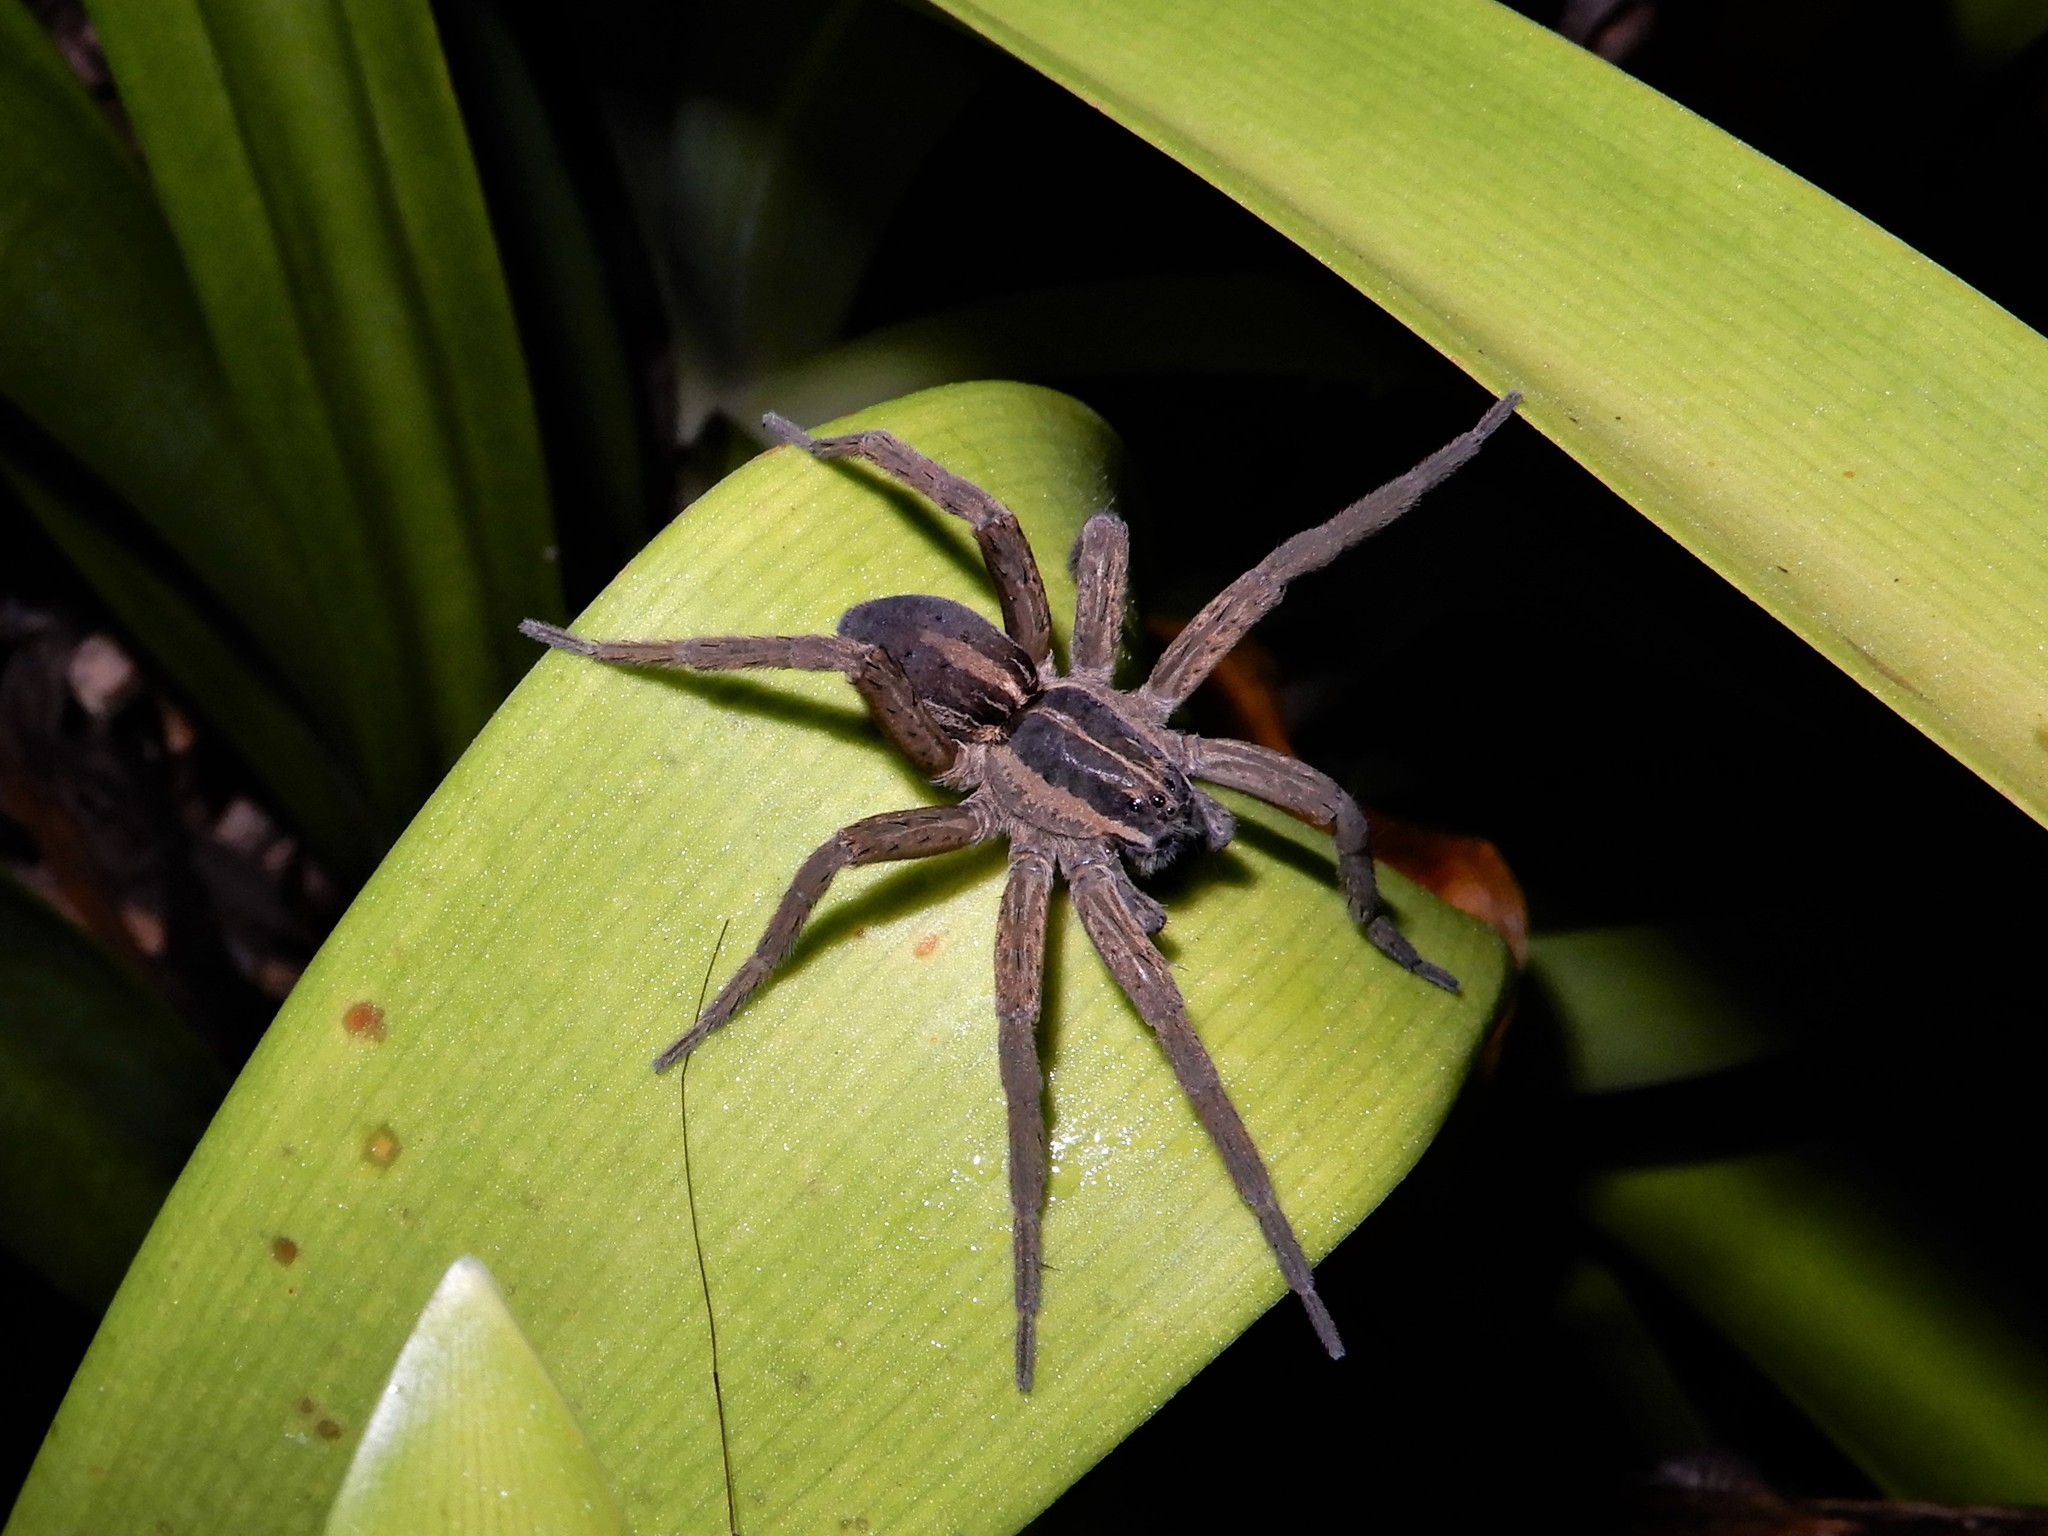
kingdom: Animalia
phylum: Arthropoda
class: Arachnida
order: Araneae
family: Pisauridae
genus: Dolomedes
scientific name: Dolomedes minor
